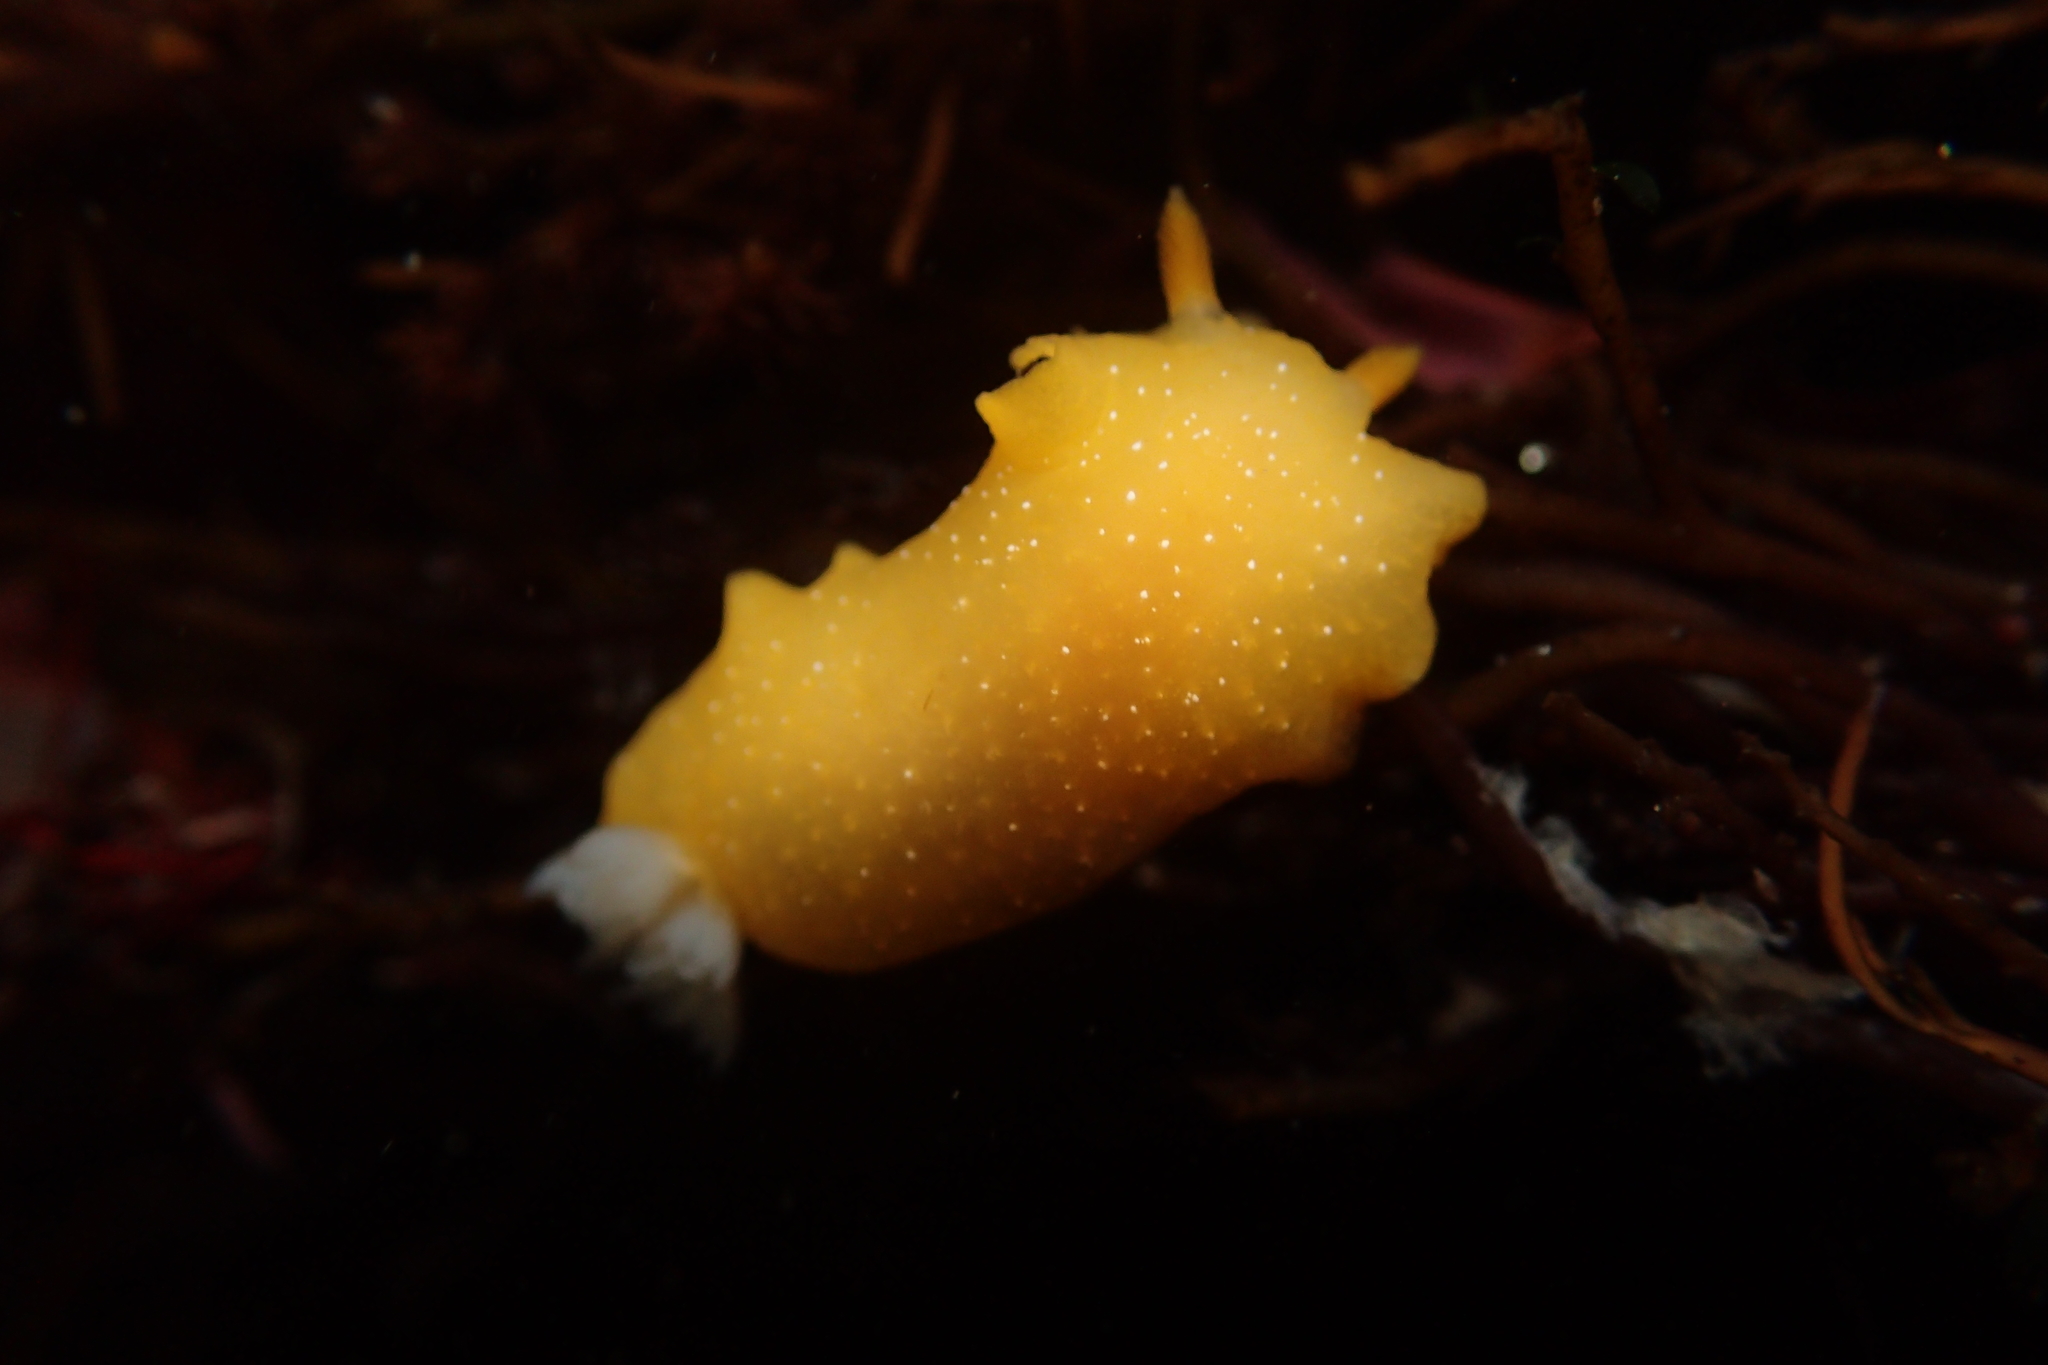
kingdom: Animalia
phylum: Mollusca
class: Gastropoda
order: Nudibranchia
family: Dendrodorididae
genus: Doriopsilla
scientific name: Doriopsilla albopunctata
